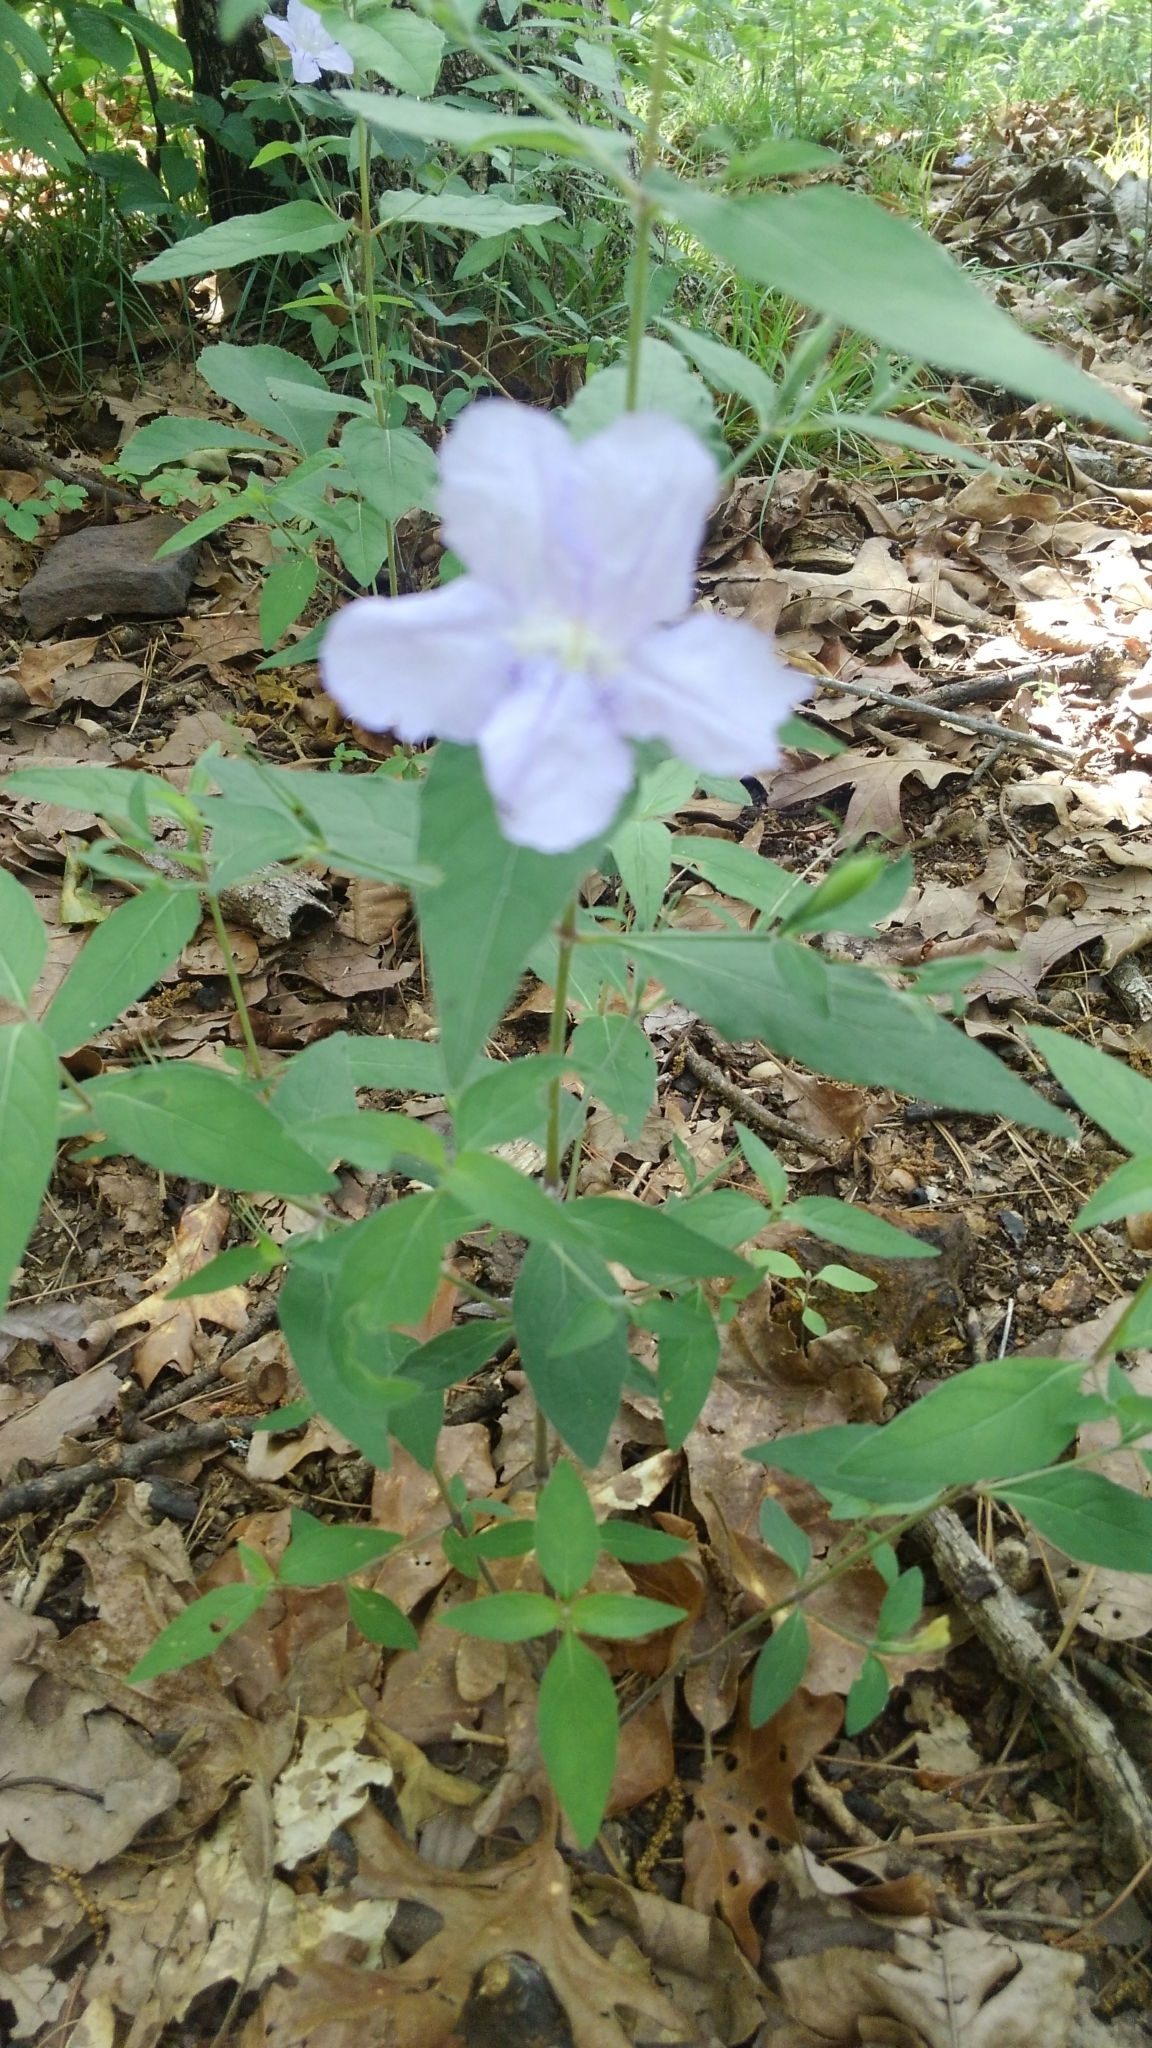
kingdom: Plantae
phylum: Tracheophyta
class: Magnoliopsida
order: Lamiales
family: Acanthaceae
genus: Ruellia
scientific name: Ruellia pedunculata
